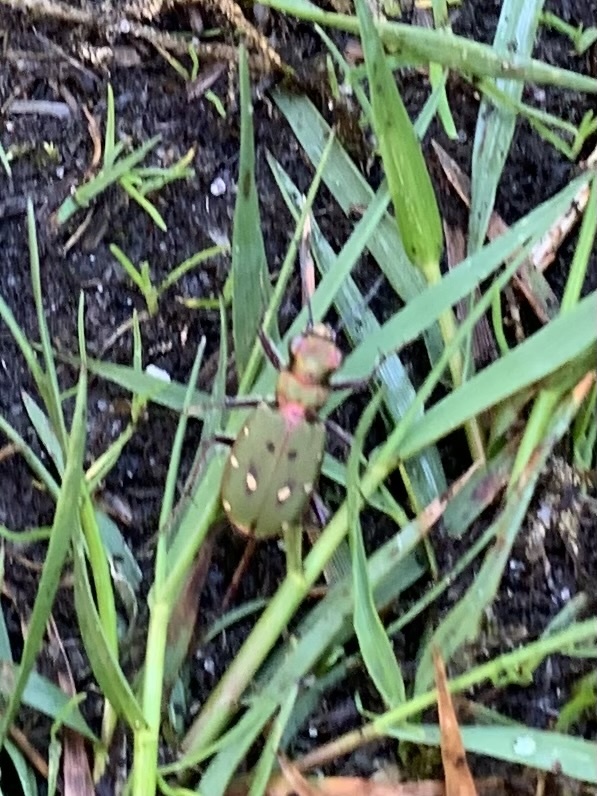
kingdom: Animalia
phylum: Arthropoda
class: Insecta
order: Coleoptera
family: Carabidae
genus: Cicindela
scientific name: Cicindela campestris
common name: Common tiger beetle
